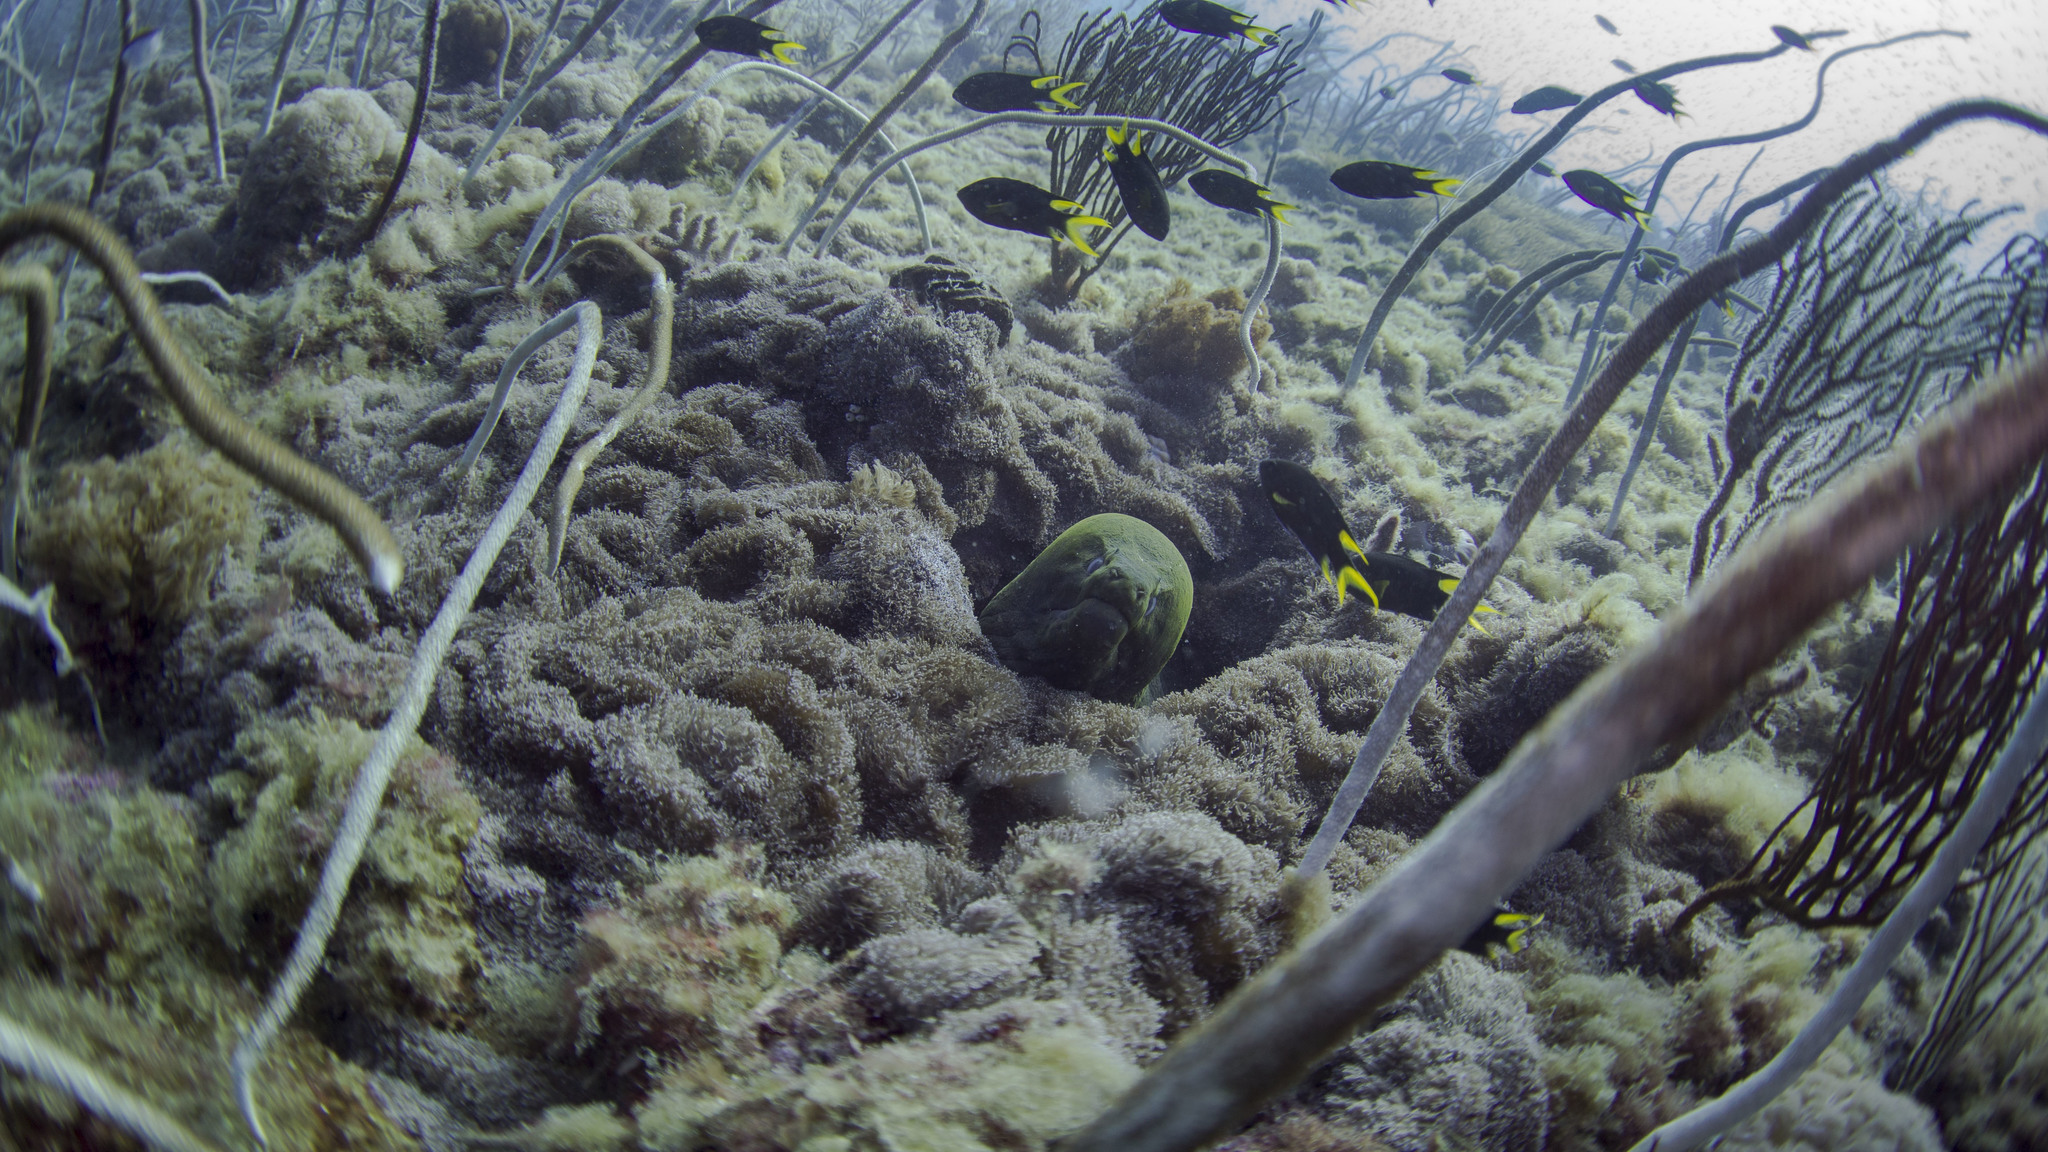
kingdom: Animalia
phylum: Chordata
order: Anguilliformes
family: Muraenidae
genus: Gymnothorax
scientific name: Gymnothorax javanicus
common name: Giant moray
